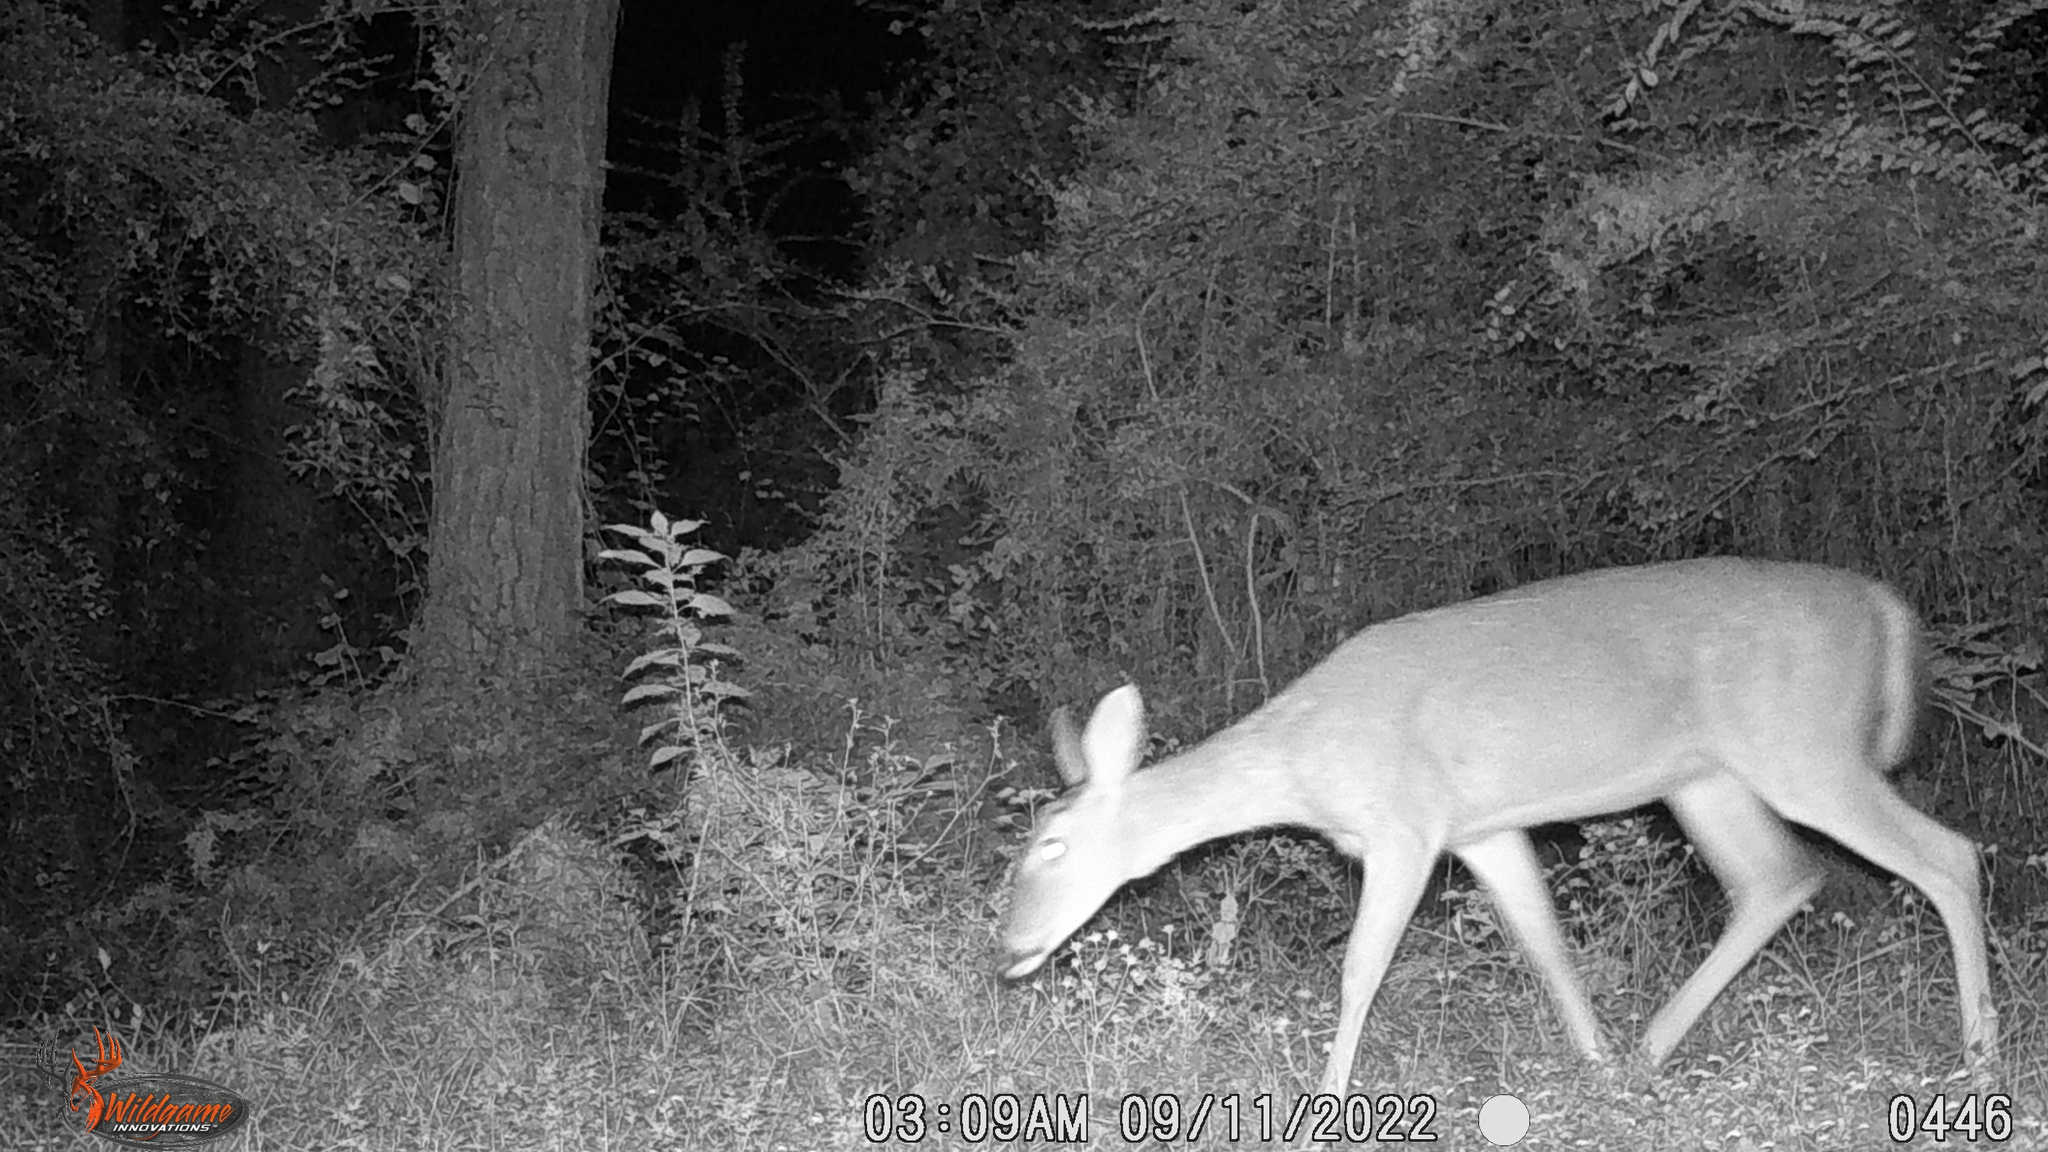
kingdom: Animalia
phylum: Chordata
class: Mammalia
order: Artiodactyla
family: Cervidae
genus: Odocoileus
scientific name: Odocoileus virginianus
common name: White-tailed deer
